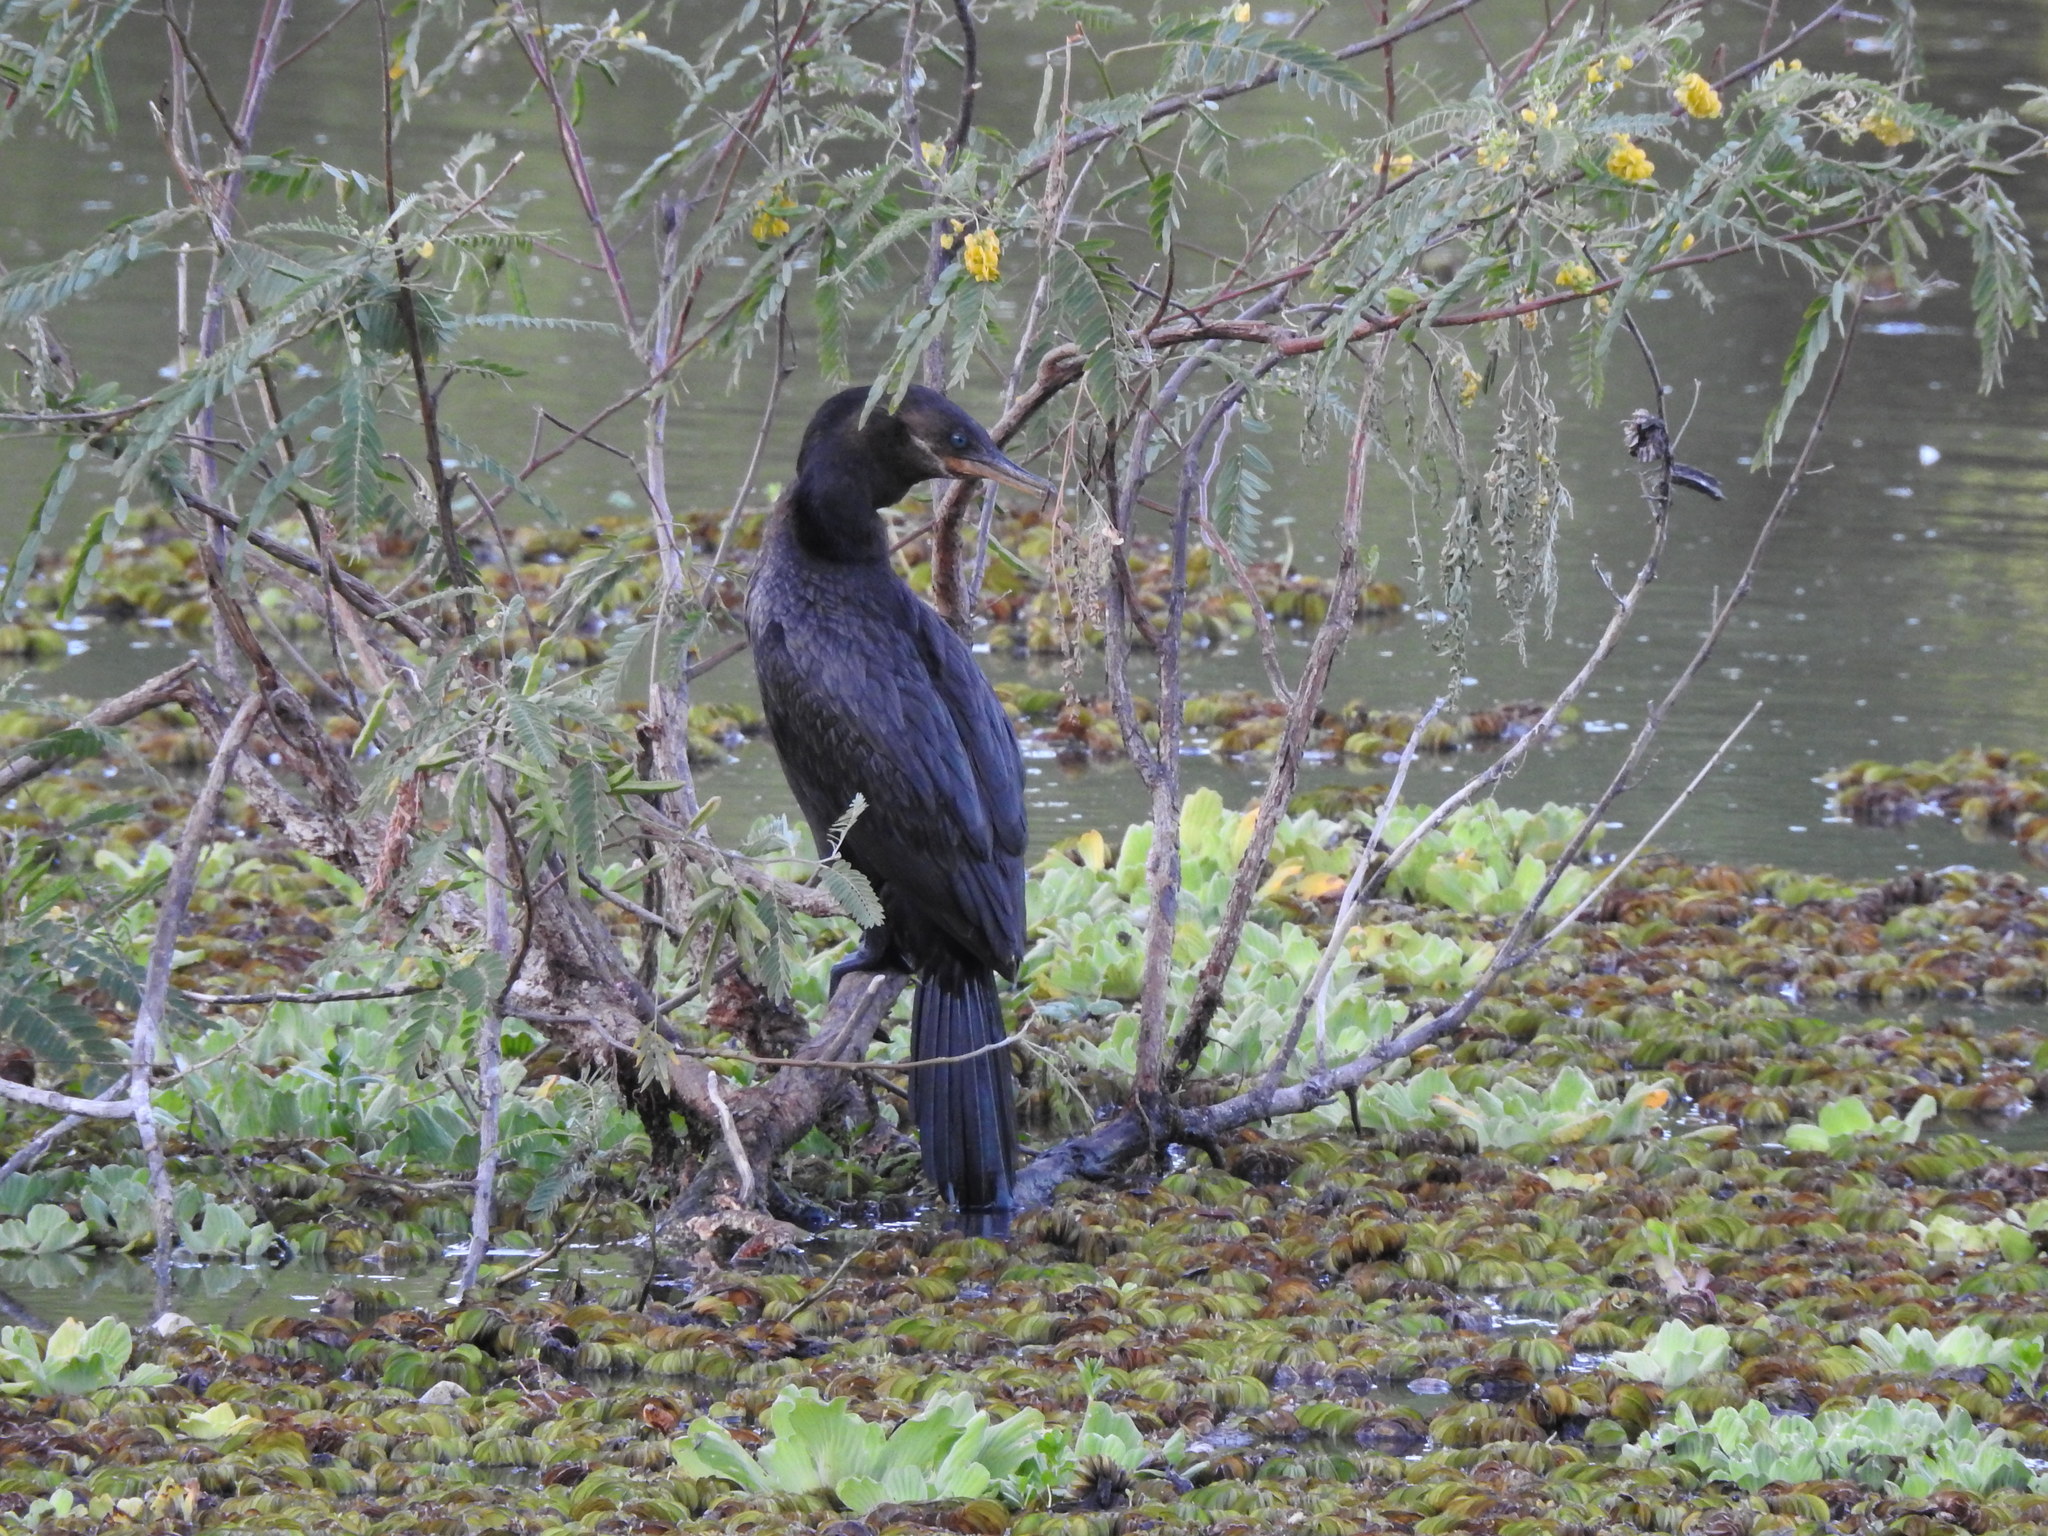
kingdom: Animalia
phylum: Chordata
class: Aves
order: Suliformes
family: Phalacrocoracidae
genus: Phalacrocorax
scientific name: Phalacrocorax brasilianus
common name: Neotropic cormorant
